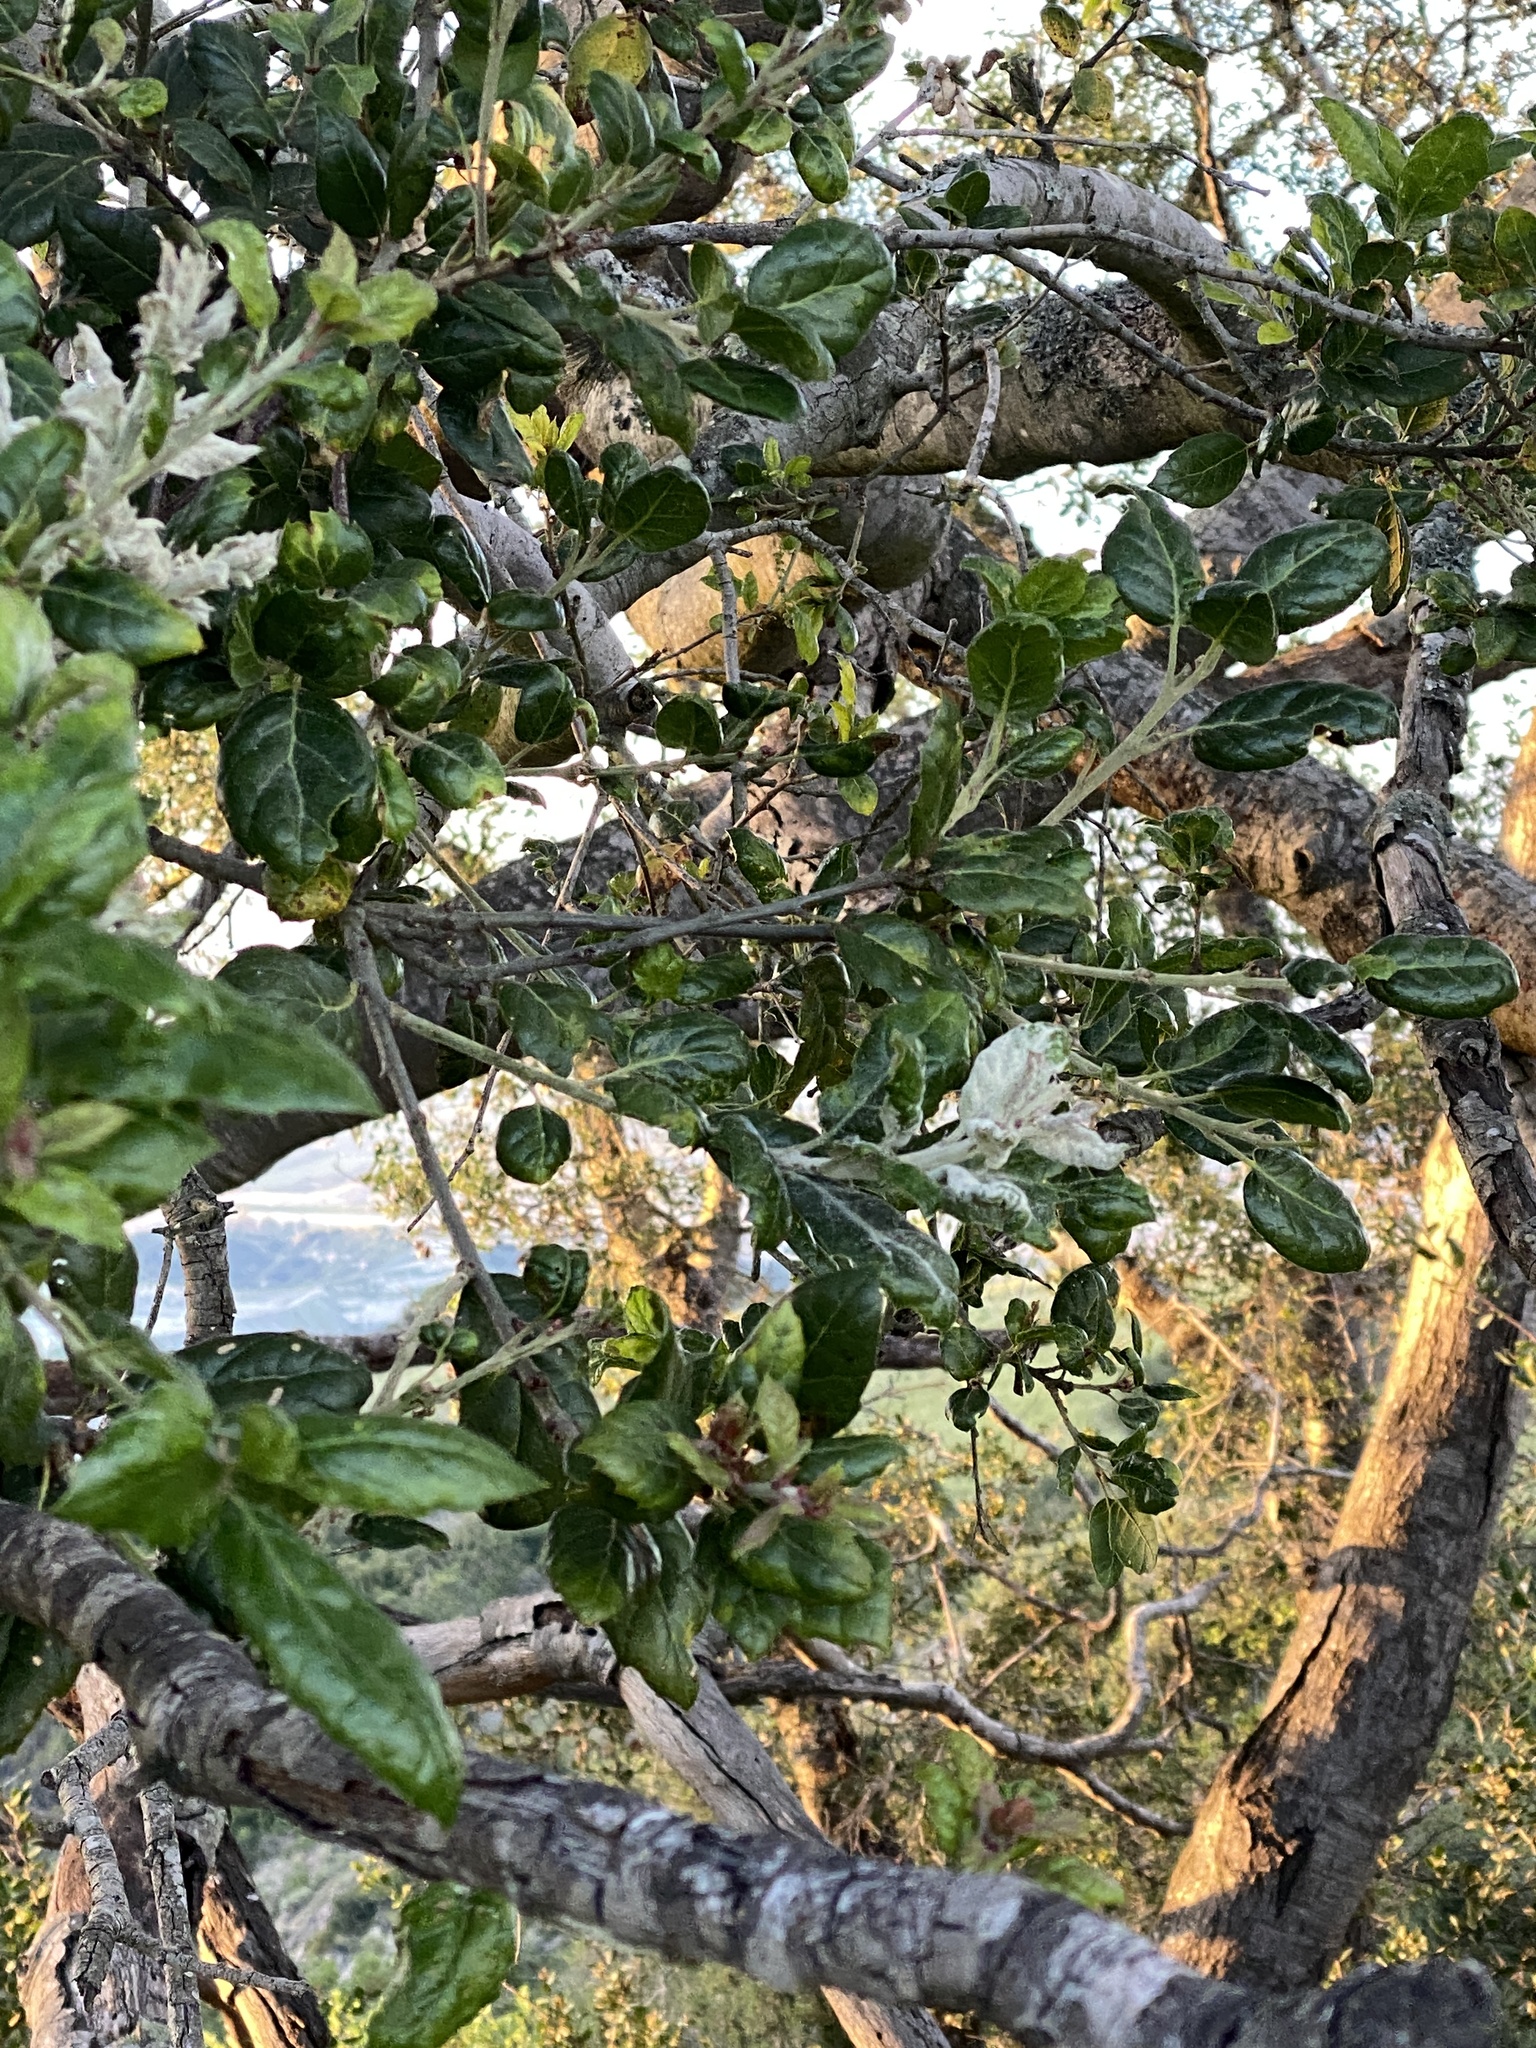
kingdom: Plantae
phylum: Tracheophyta
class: Magnoliopsida
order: Fagales
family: Fagaceae
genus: Quercus
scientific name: Quercus agrifolia
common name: California live oak
